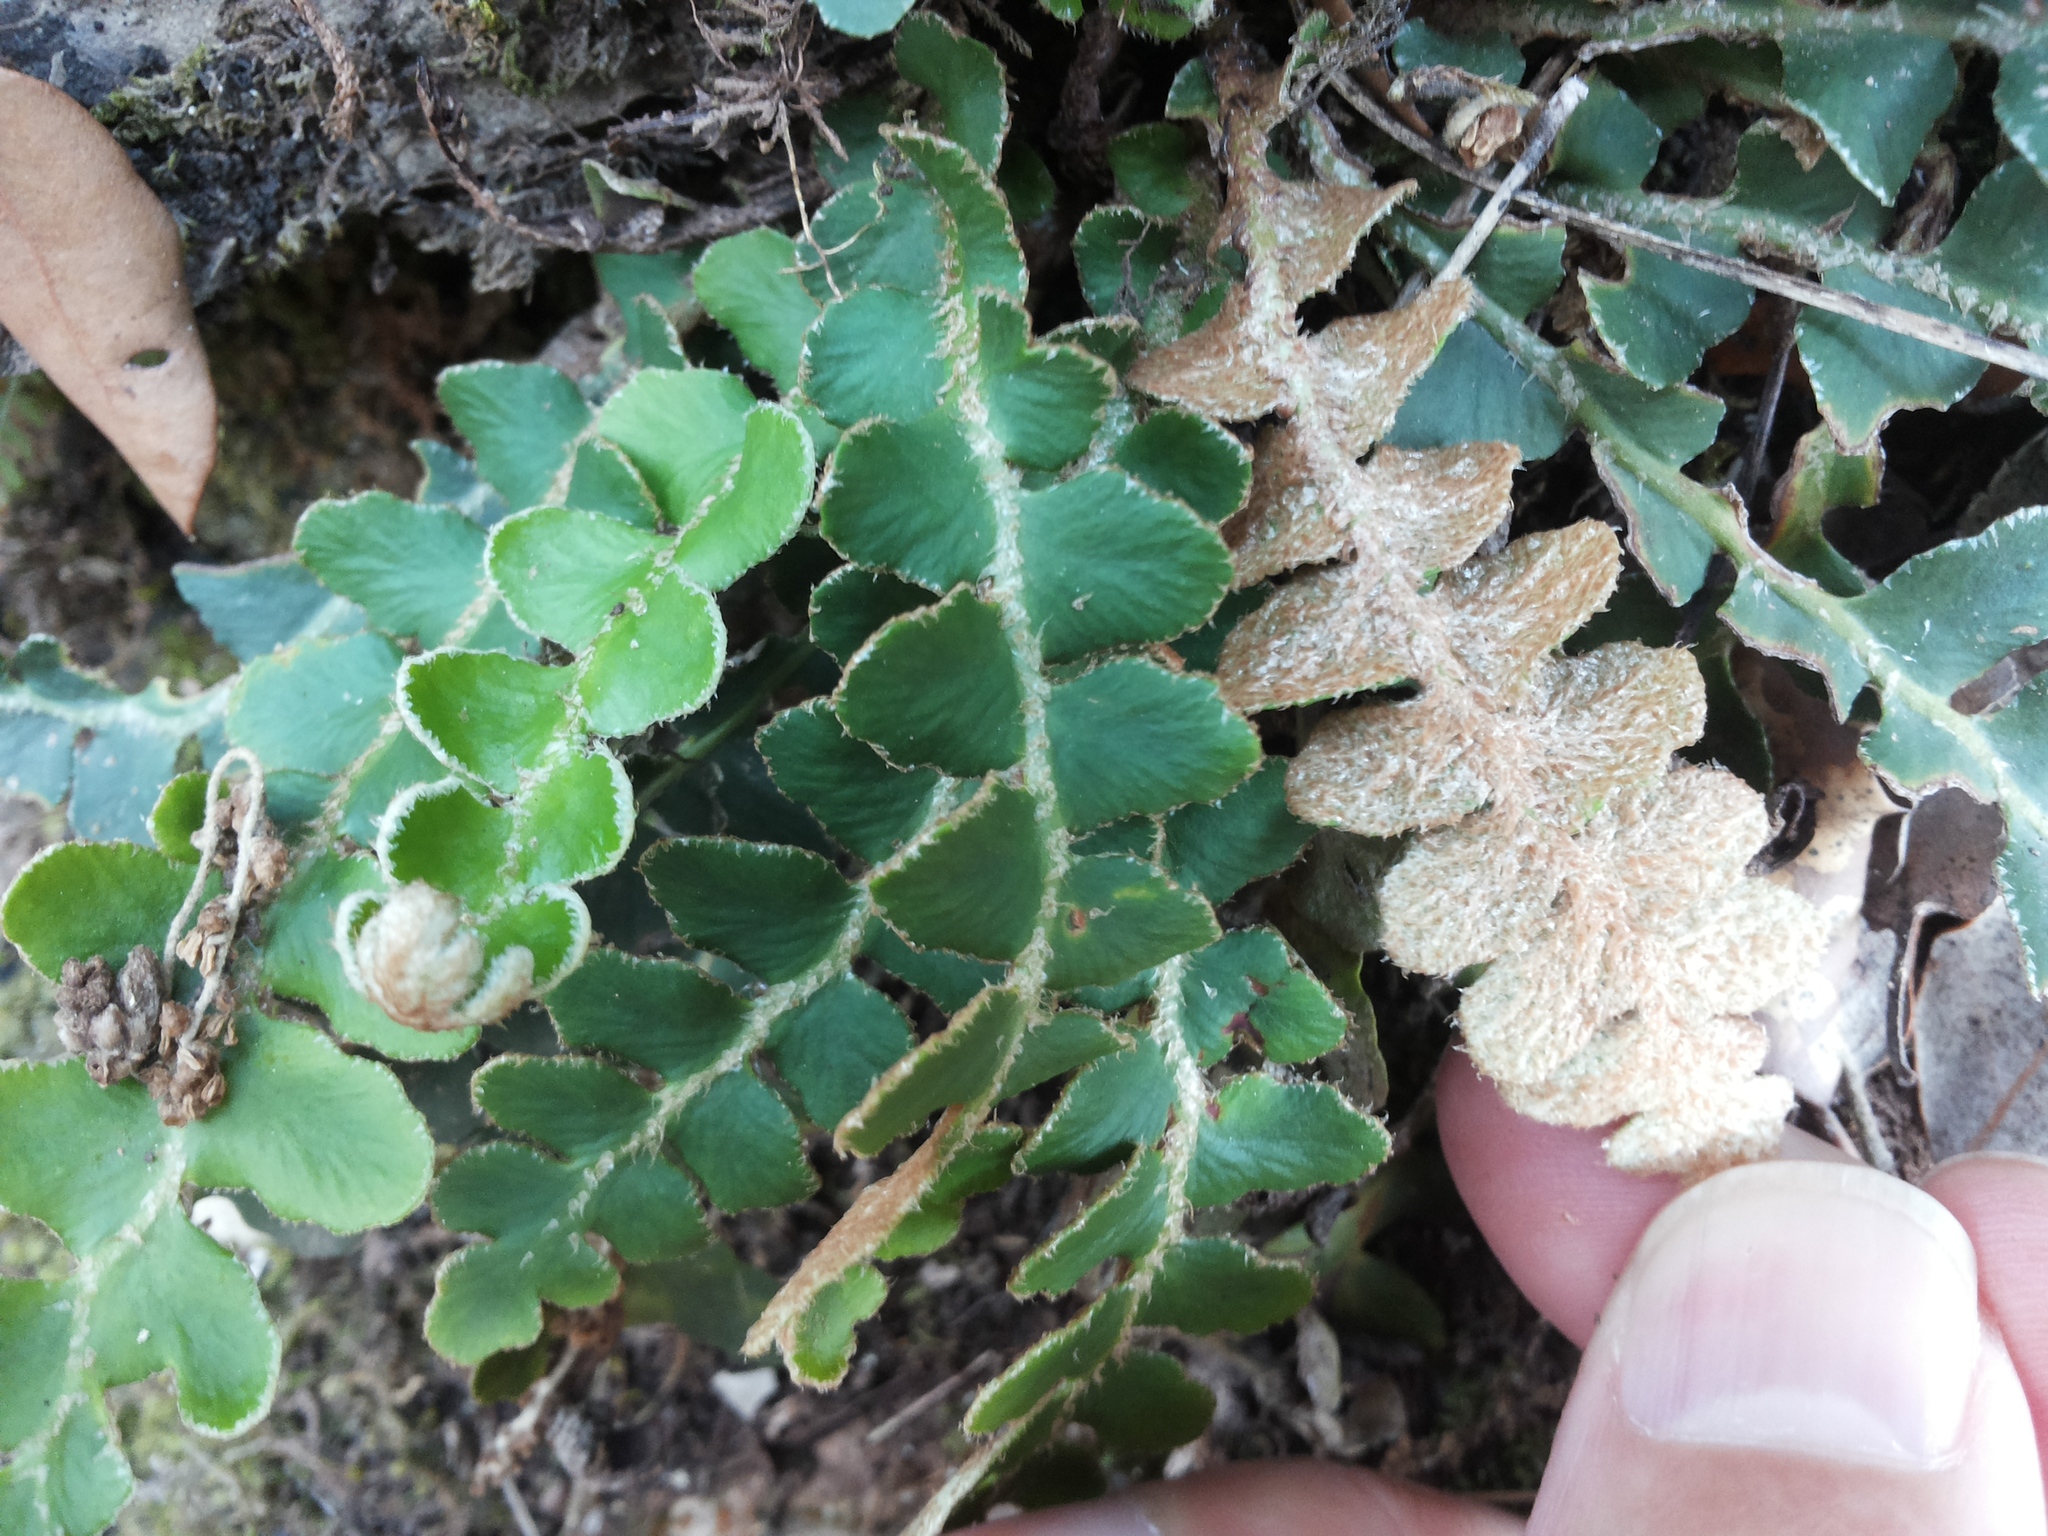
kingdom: Plantae
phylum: Tracheophyta
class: Polypodiopsida
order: Polypodiales
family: Aspleniaceae
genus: Asplenium
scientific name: Asplenium ceterach
